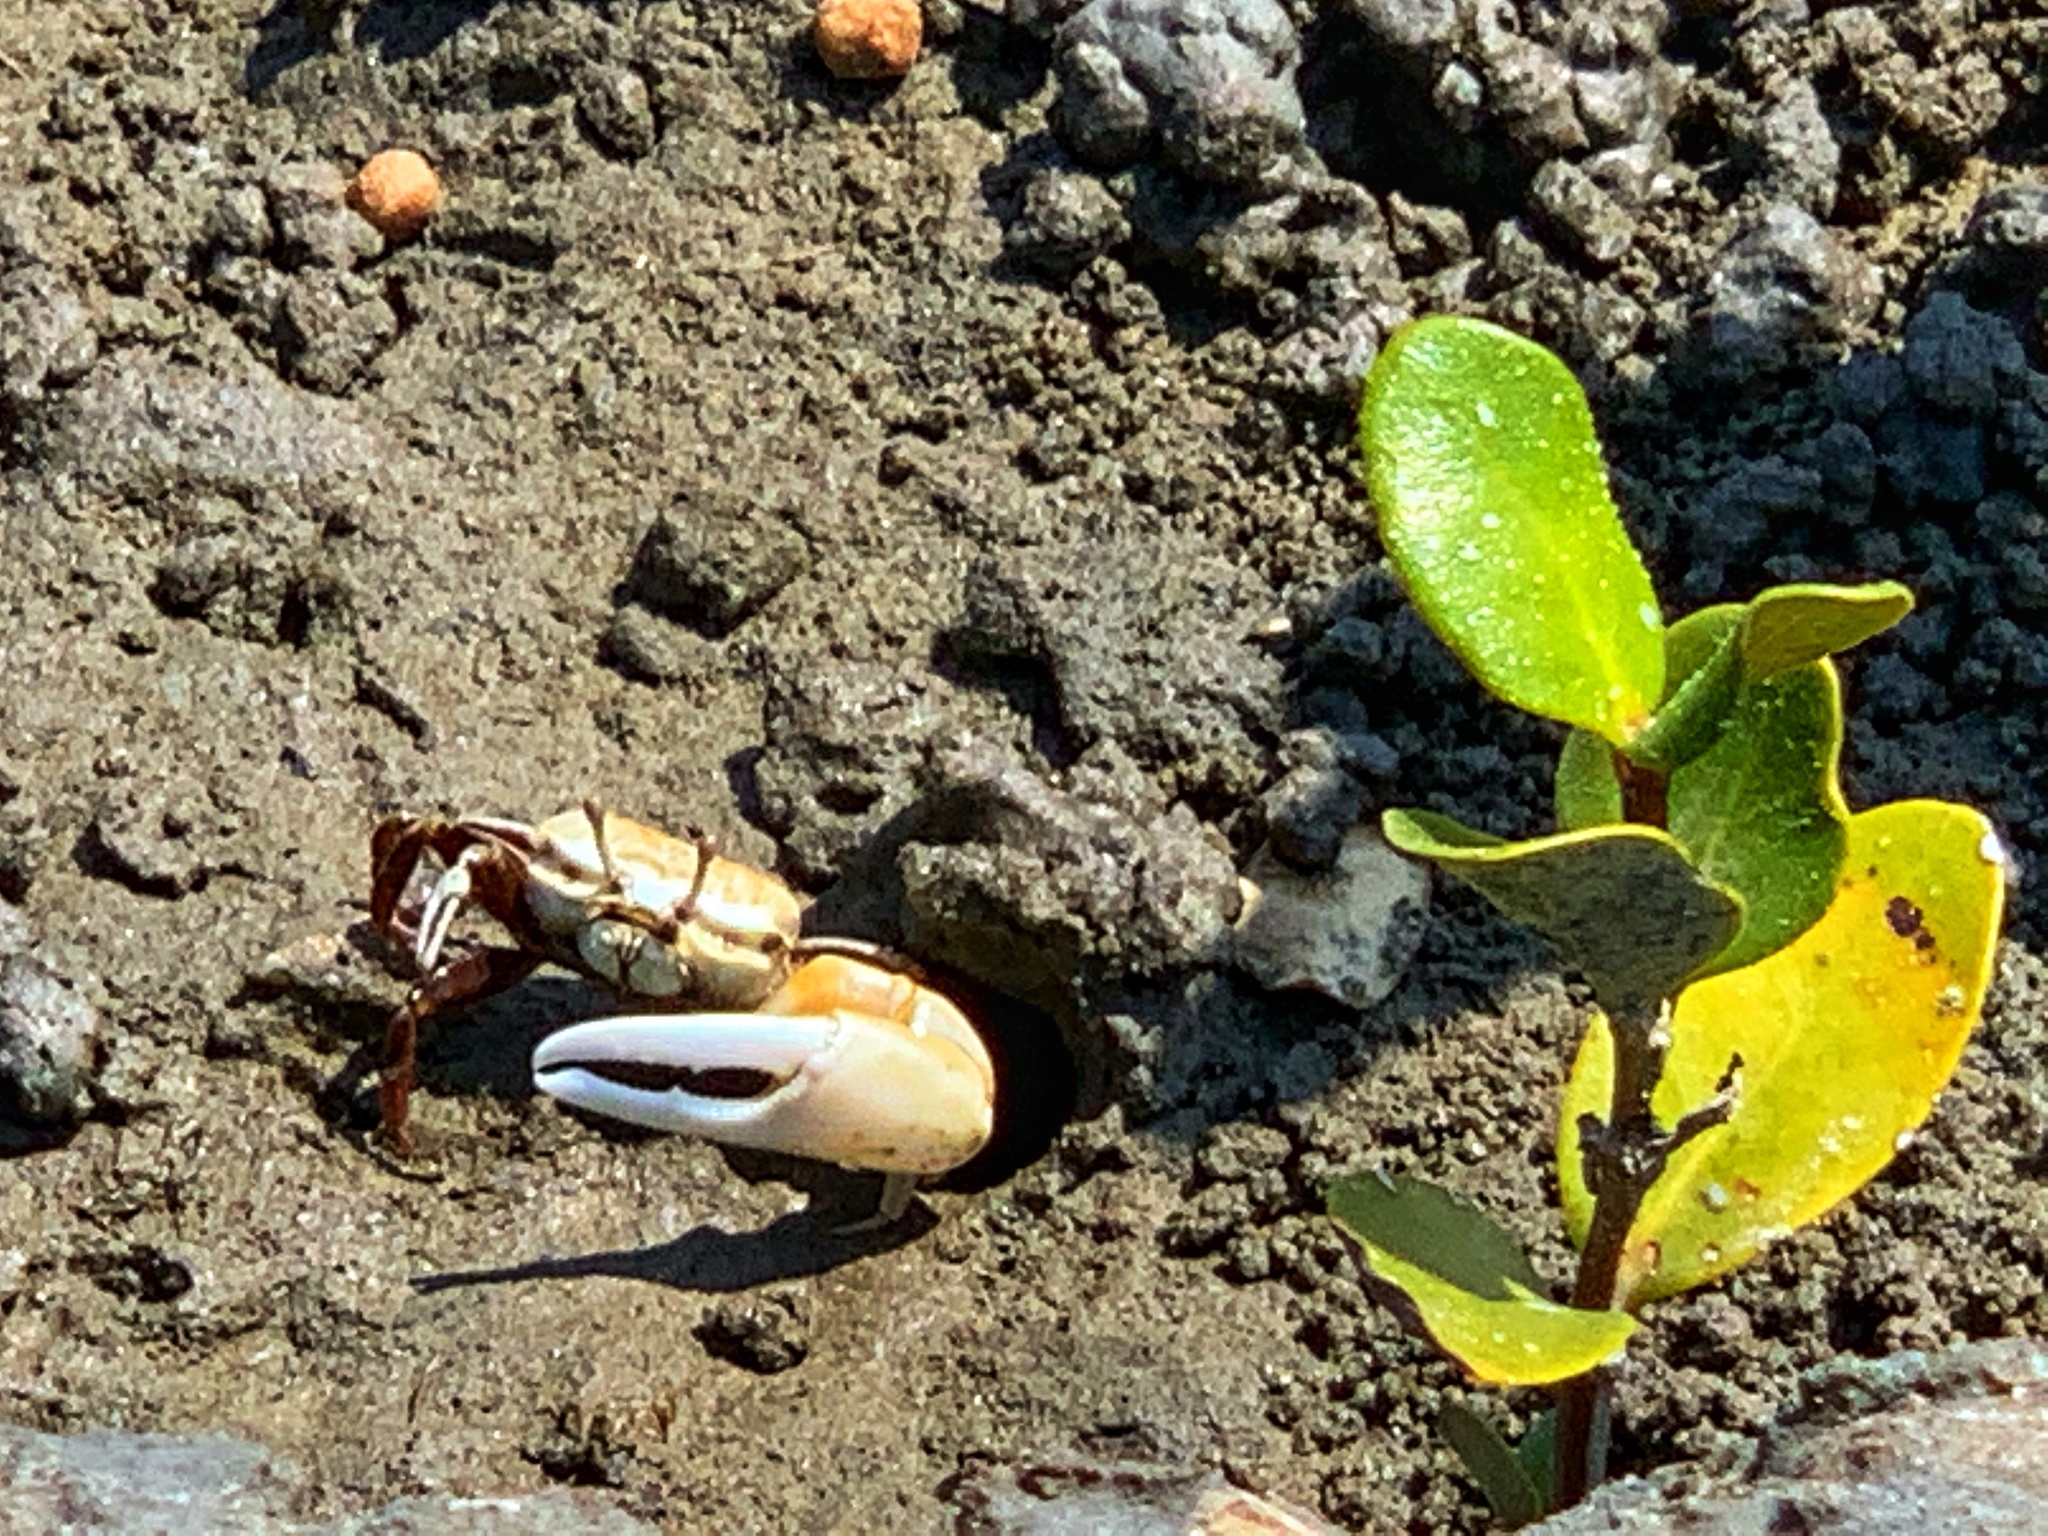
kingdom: Animalia
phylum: Arthropoda
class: Malacostraca
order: Decapoda
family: Ocypodidae
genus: Austruca
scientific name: Austruca lactea
